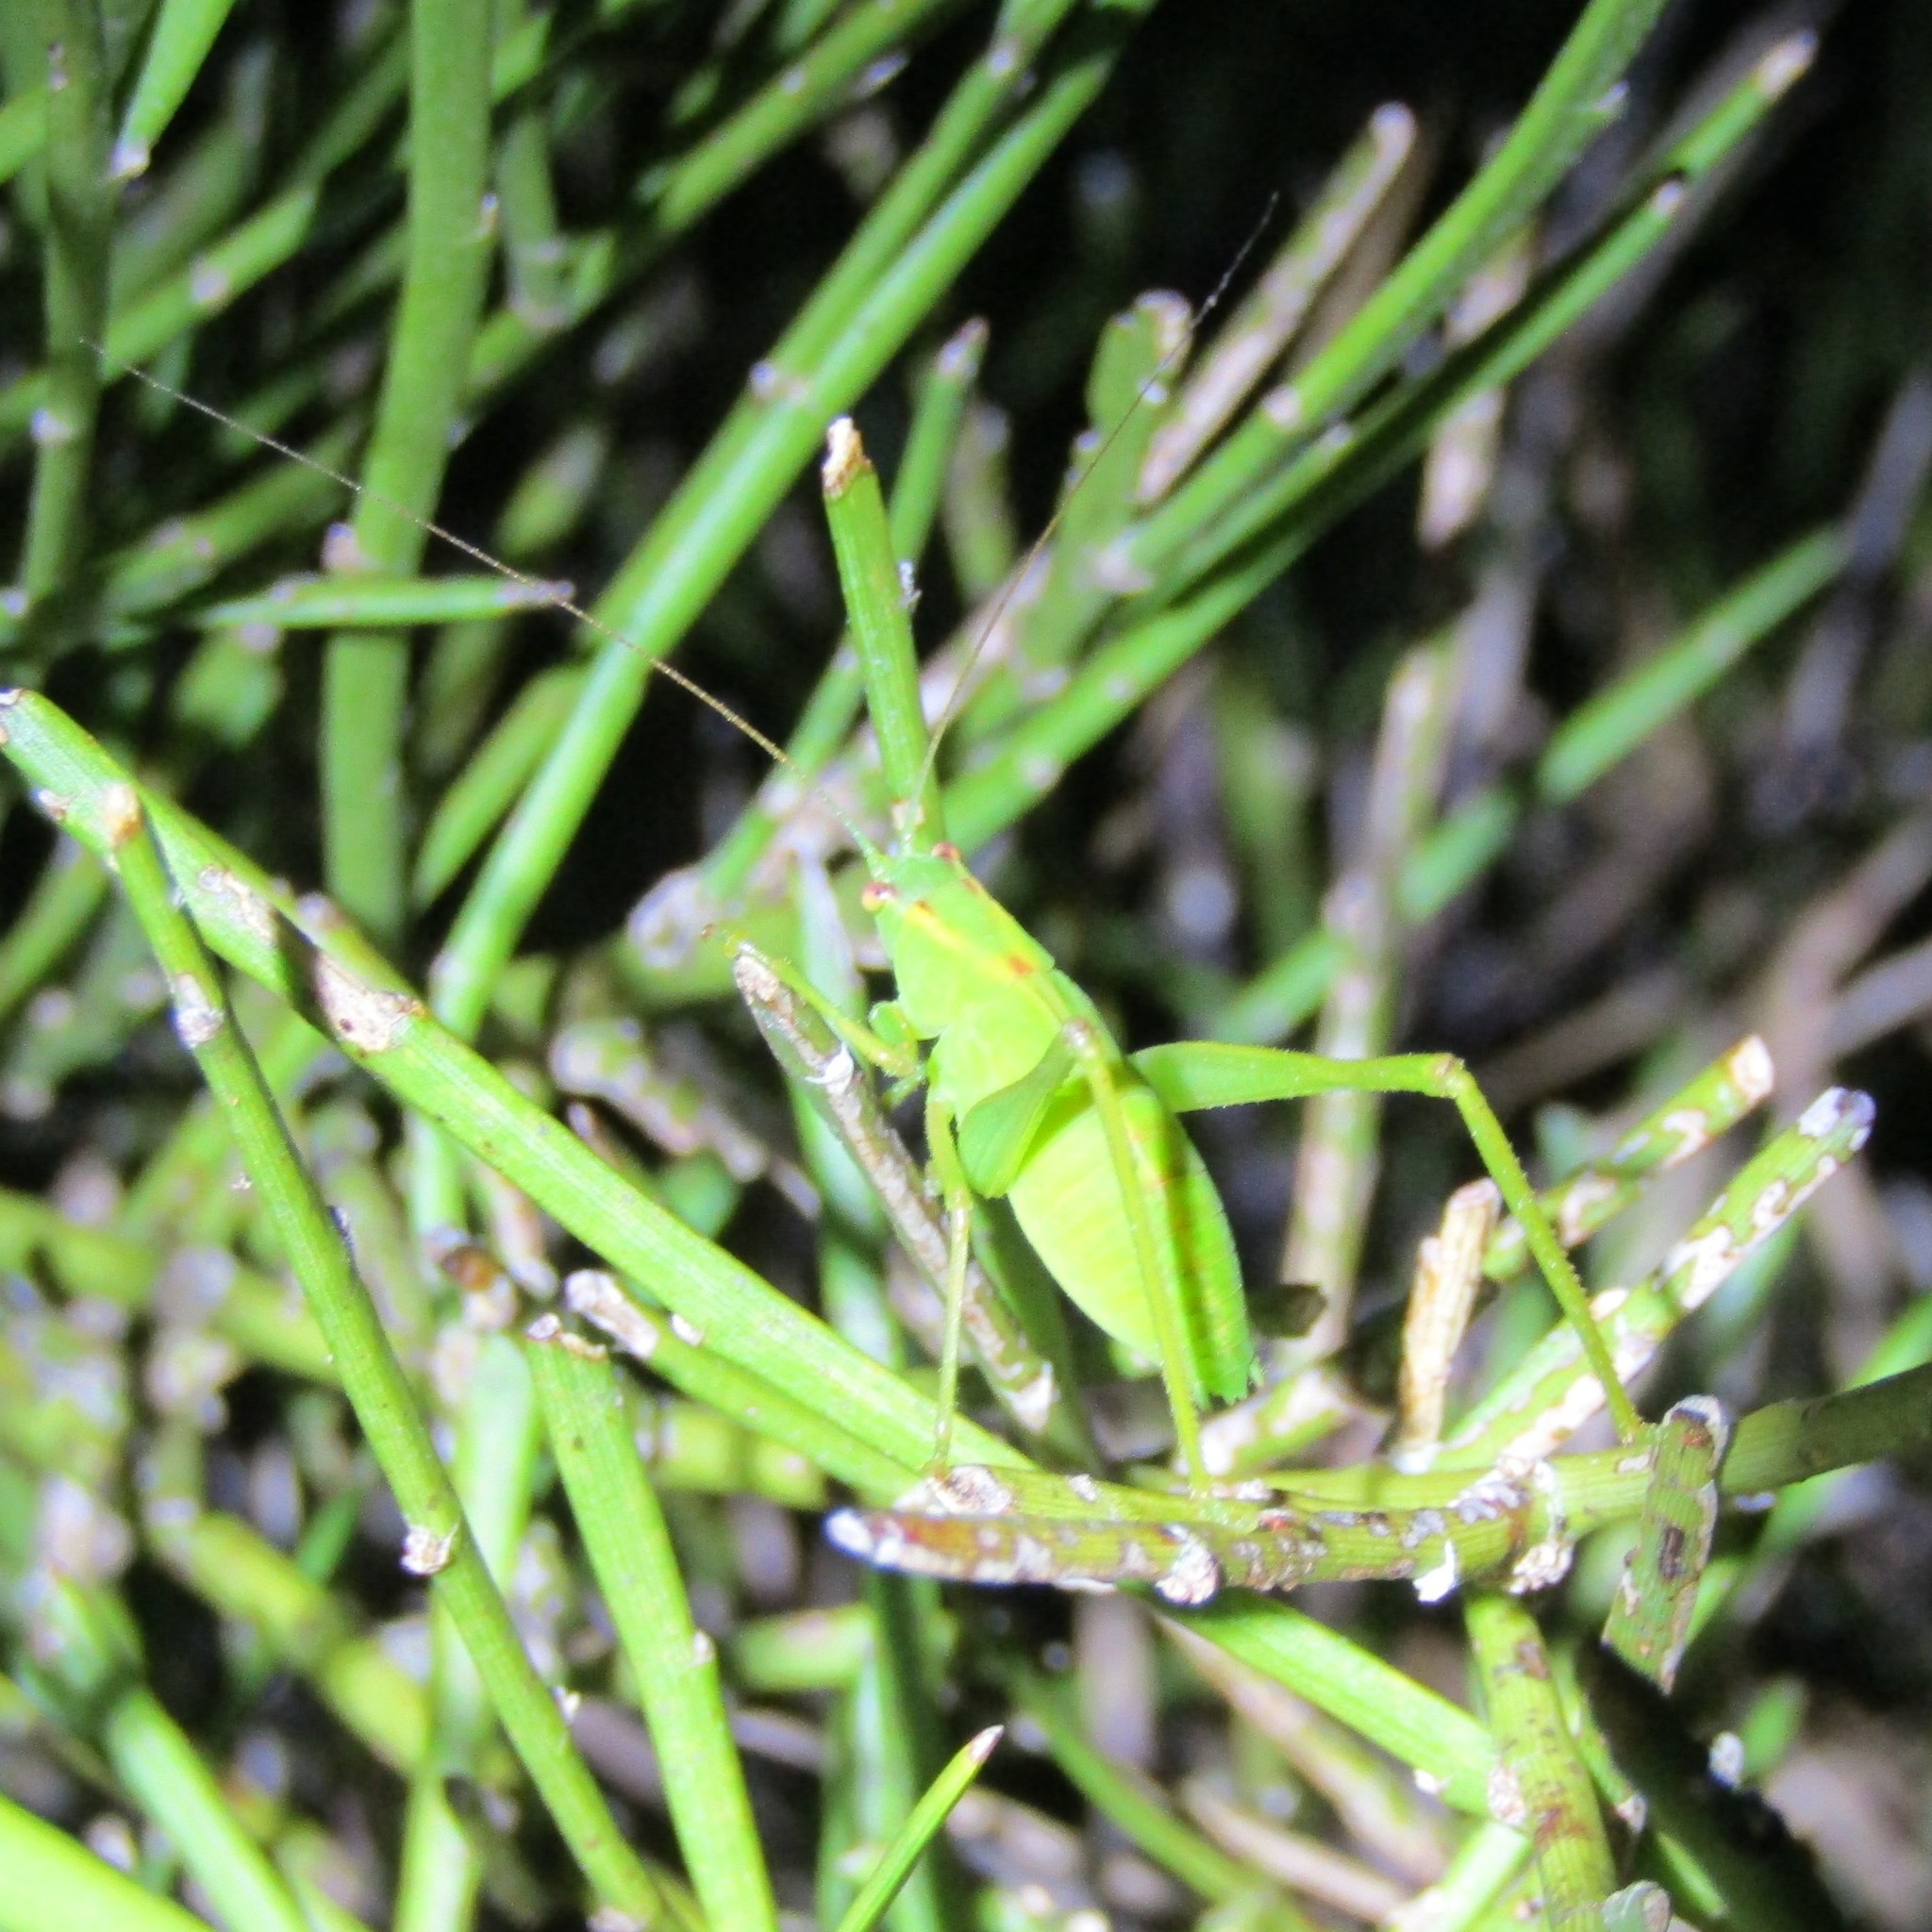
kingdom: Animalia
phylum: Arthropoda
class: Insecta
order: Orthoptera
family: Tettigoniidae
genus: Caedicia
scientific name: Caedicia simplex
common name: Common garden katydid
